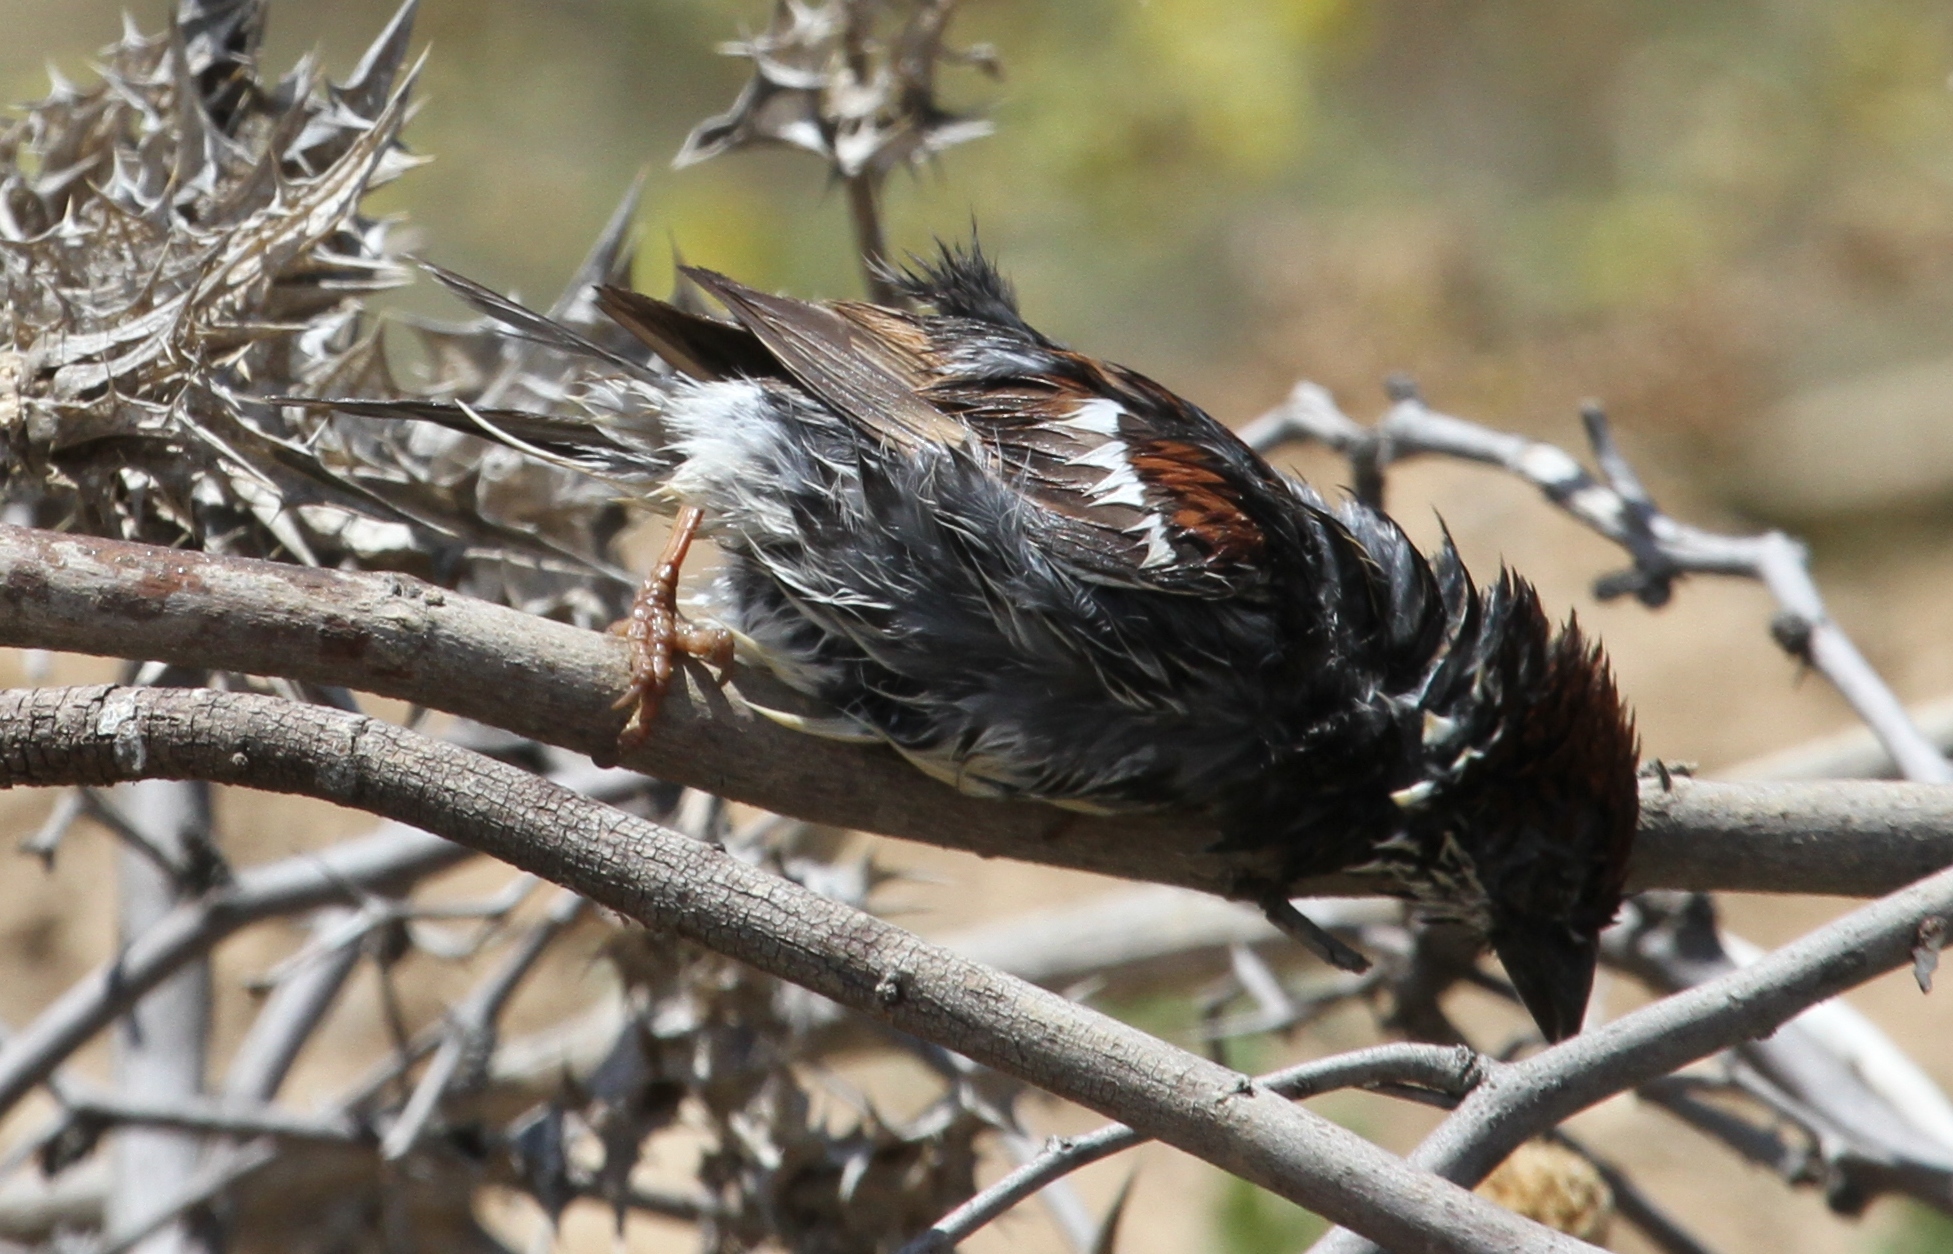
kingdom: Animalia
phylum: Chordata
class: Aves
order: Passeriformes
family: Passeridae
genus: Passer
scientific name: Passer hispaniolensis
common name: Spanish sparrow
